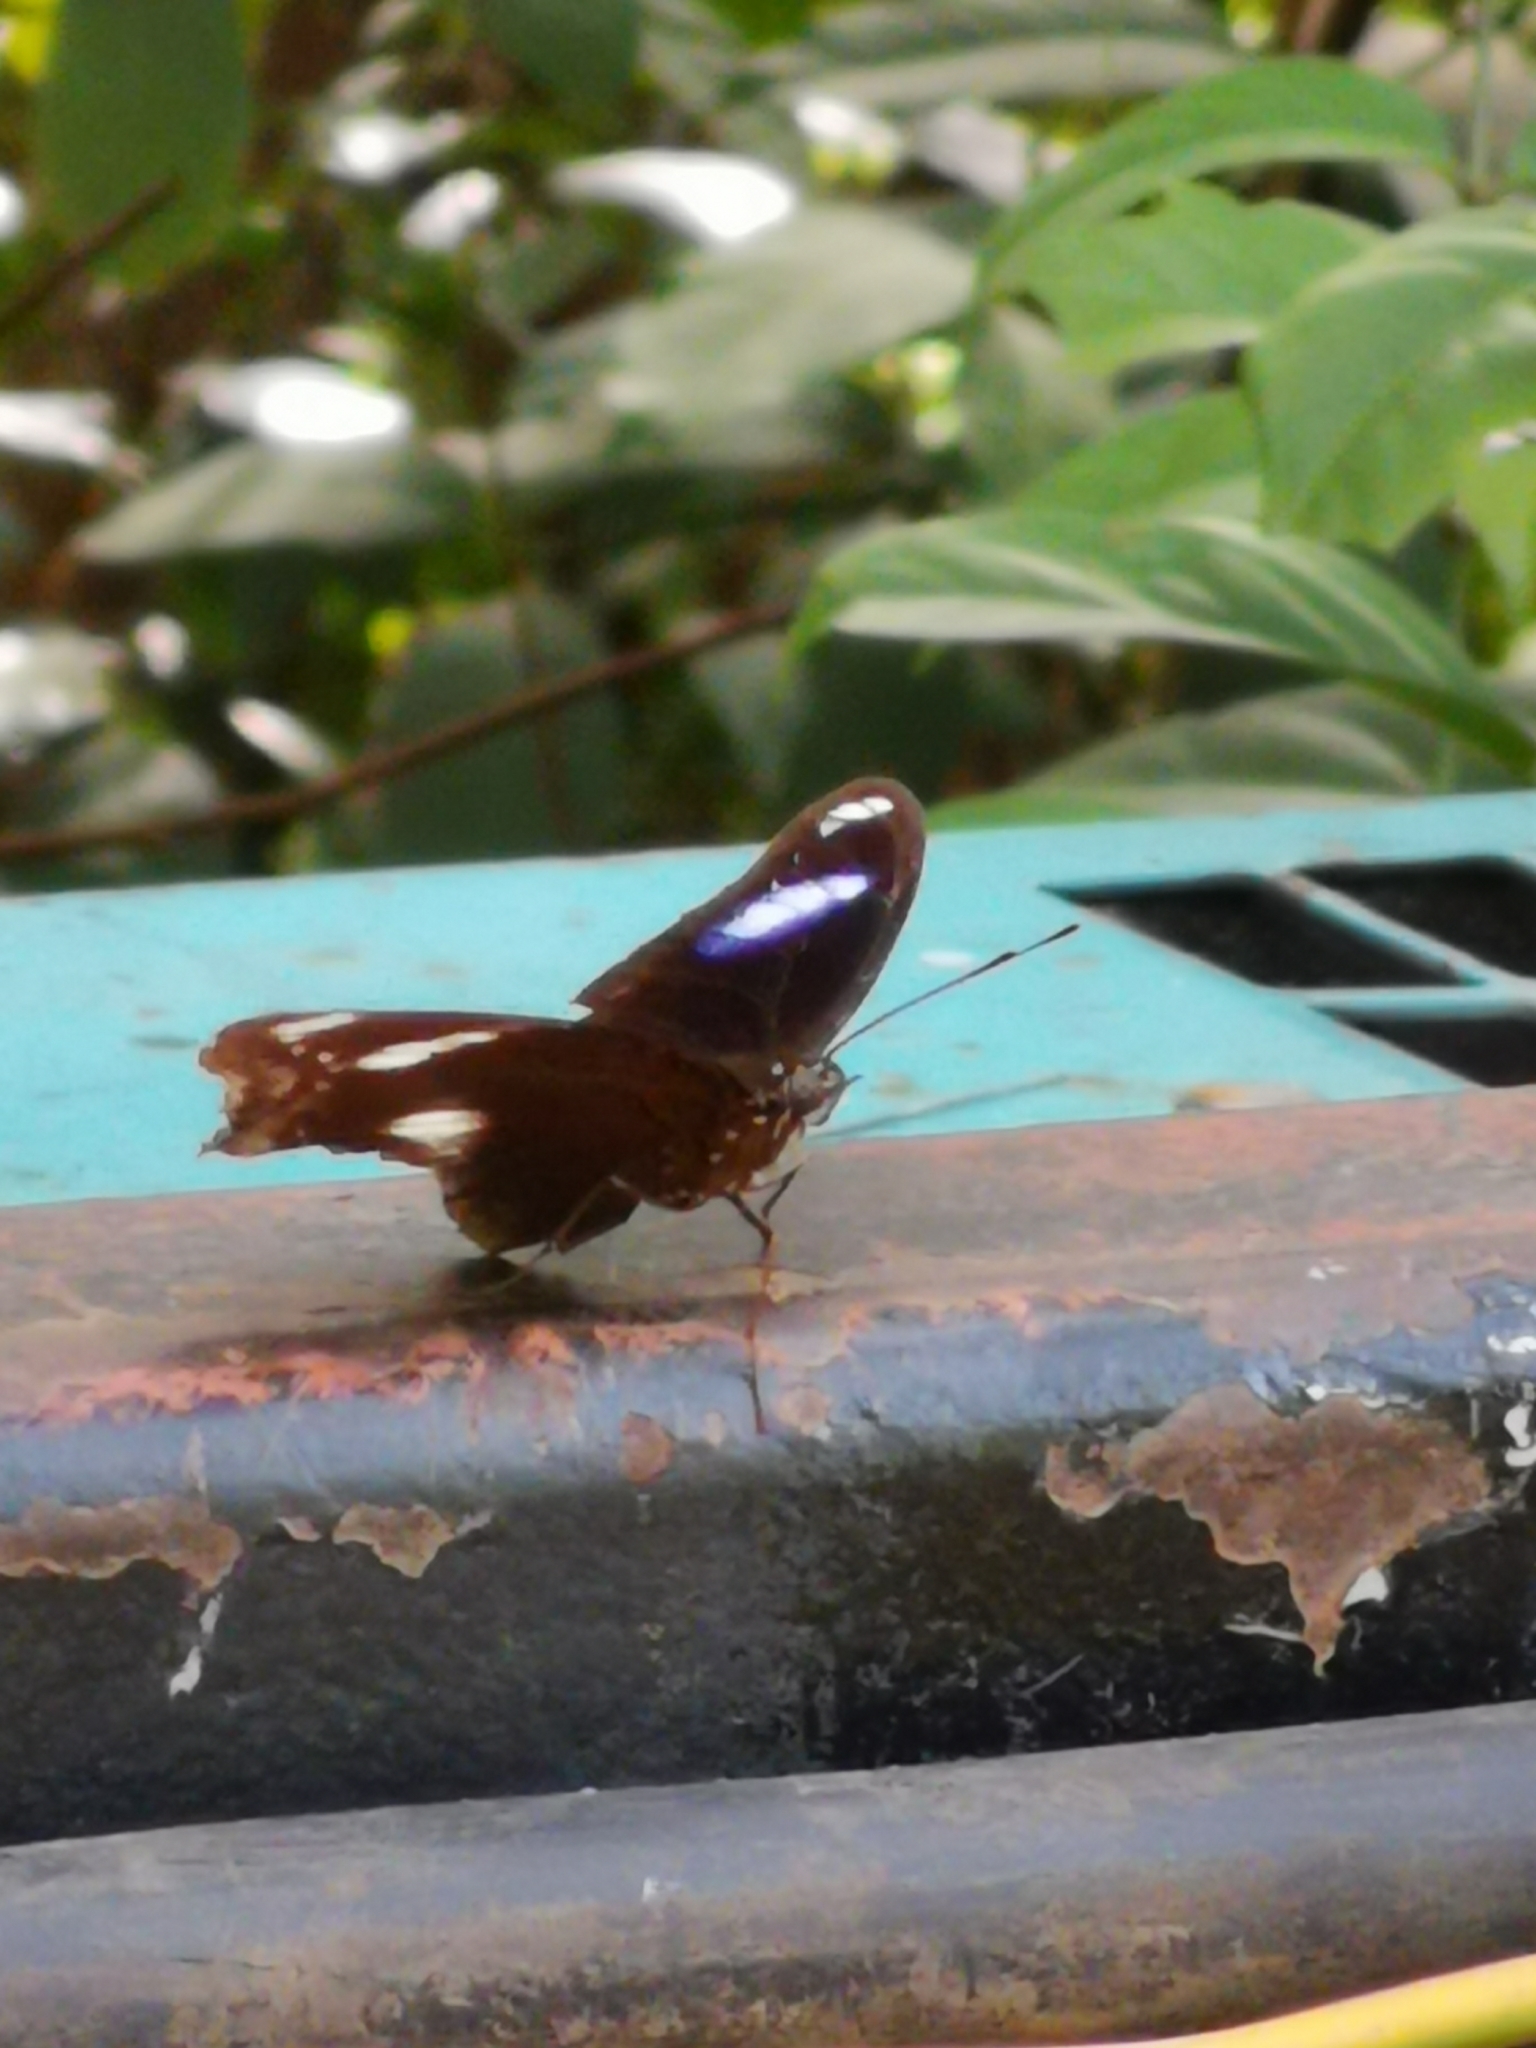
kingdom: Animalia
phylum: Arthropoda
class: Insecta
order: Lepidoptera
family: Nymphalidae
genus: Hypolimnas
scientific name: Hypolimnas bolina
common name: Great eggfly
